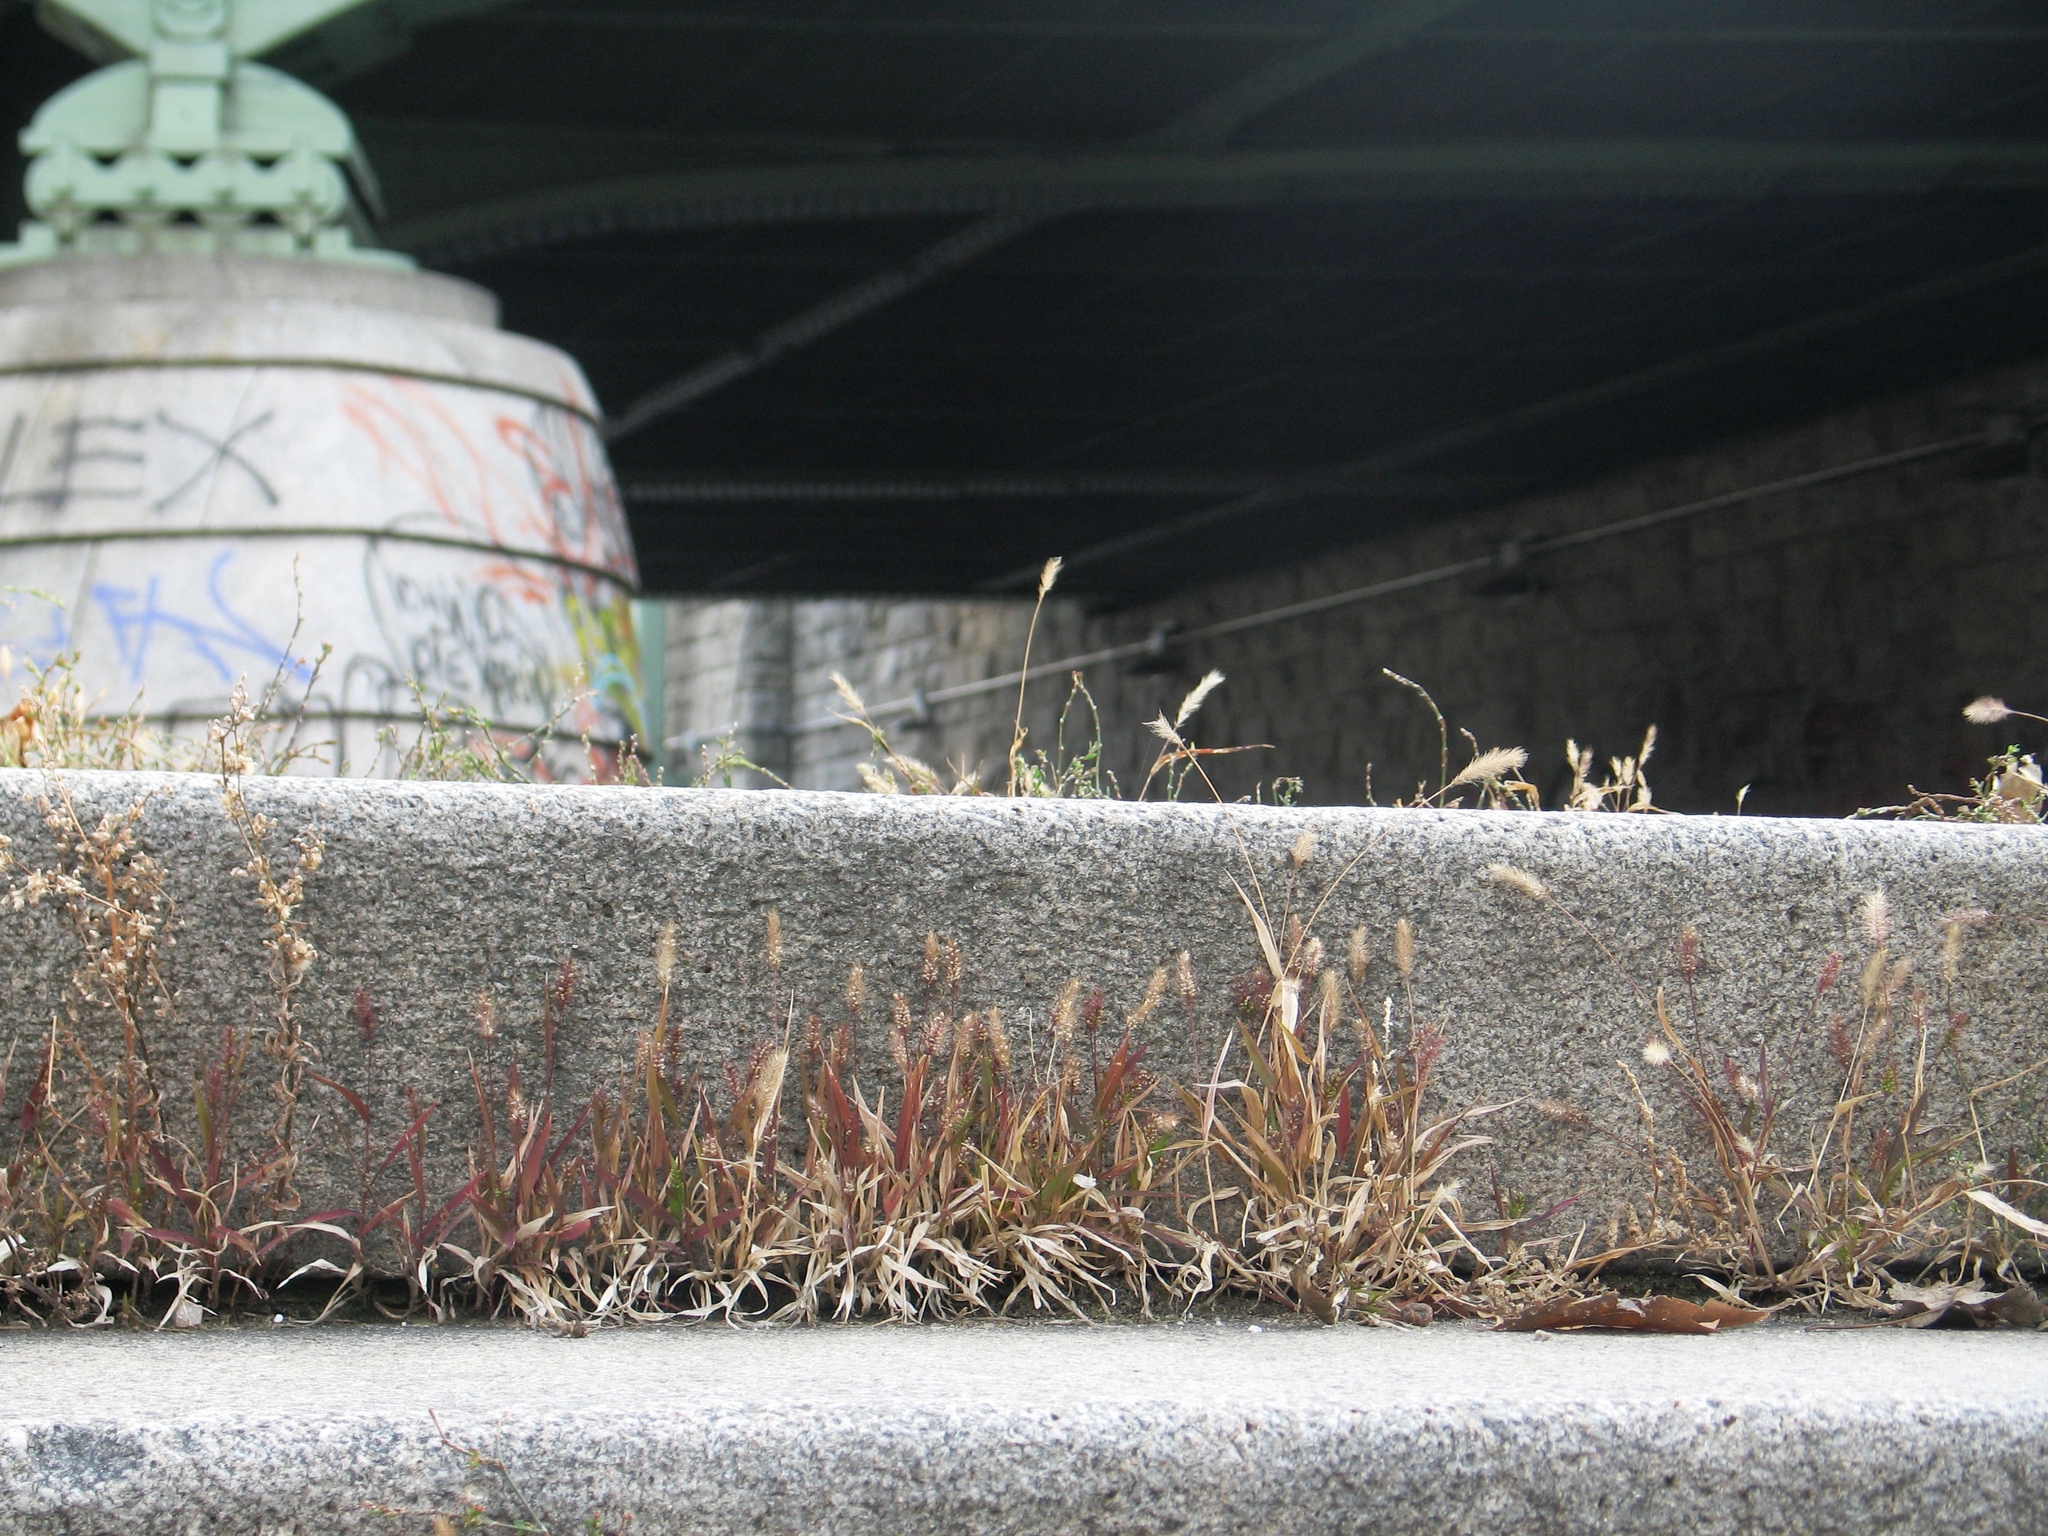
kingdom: Plantae
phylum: Tracheophyta
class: Liliopsida
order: Poales
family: Poaceae
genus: Setaria
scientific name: Setaria viridis
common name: Green bristlegrass
